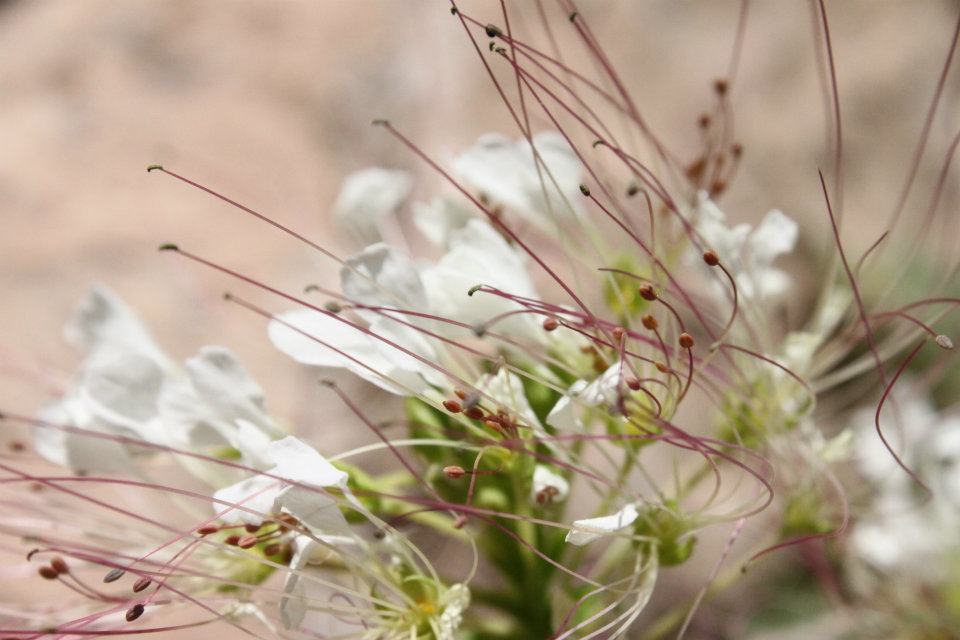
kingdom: Plantae
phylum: Tracheophyta
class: Magnoliopsida
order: Brassicales
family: Cleomaceae
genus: Polanisia
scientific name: Polanisia uniglandulosa
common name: Mexican clammyweed
